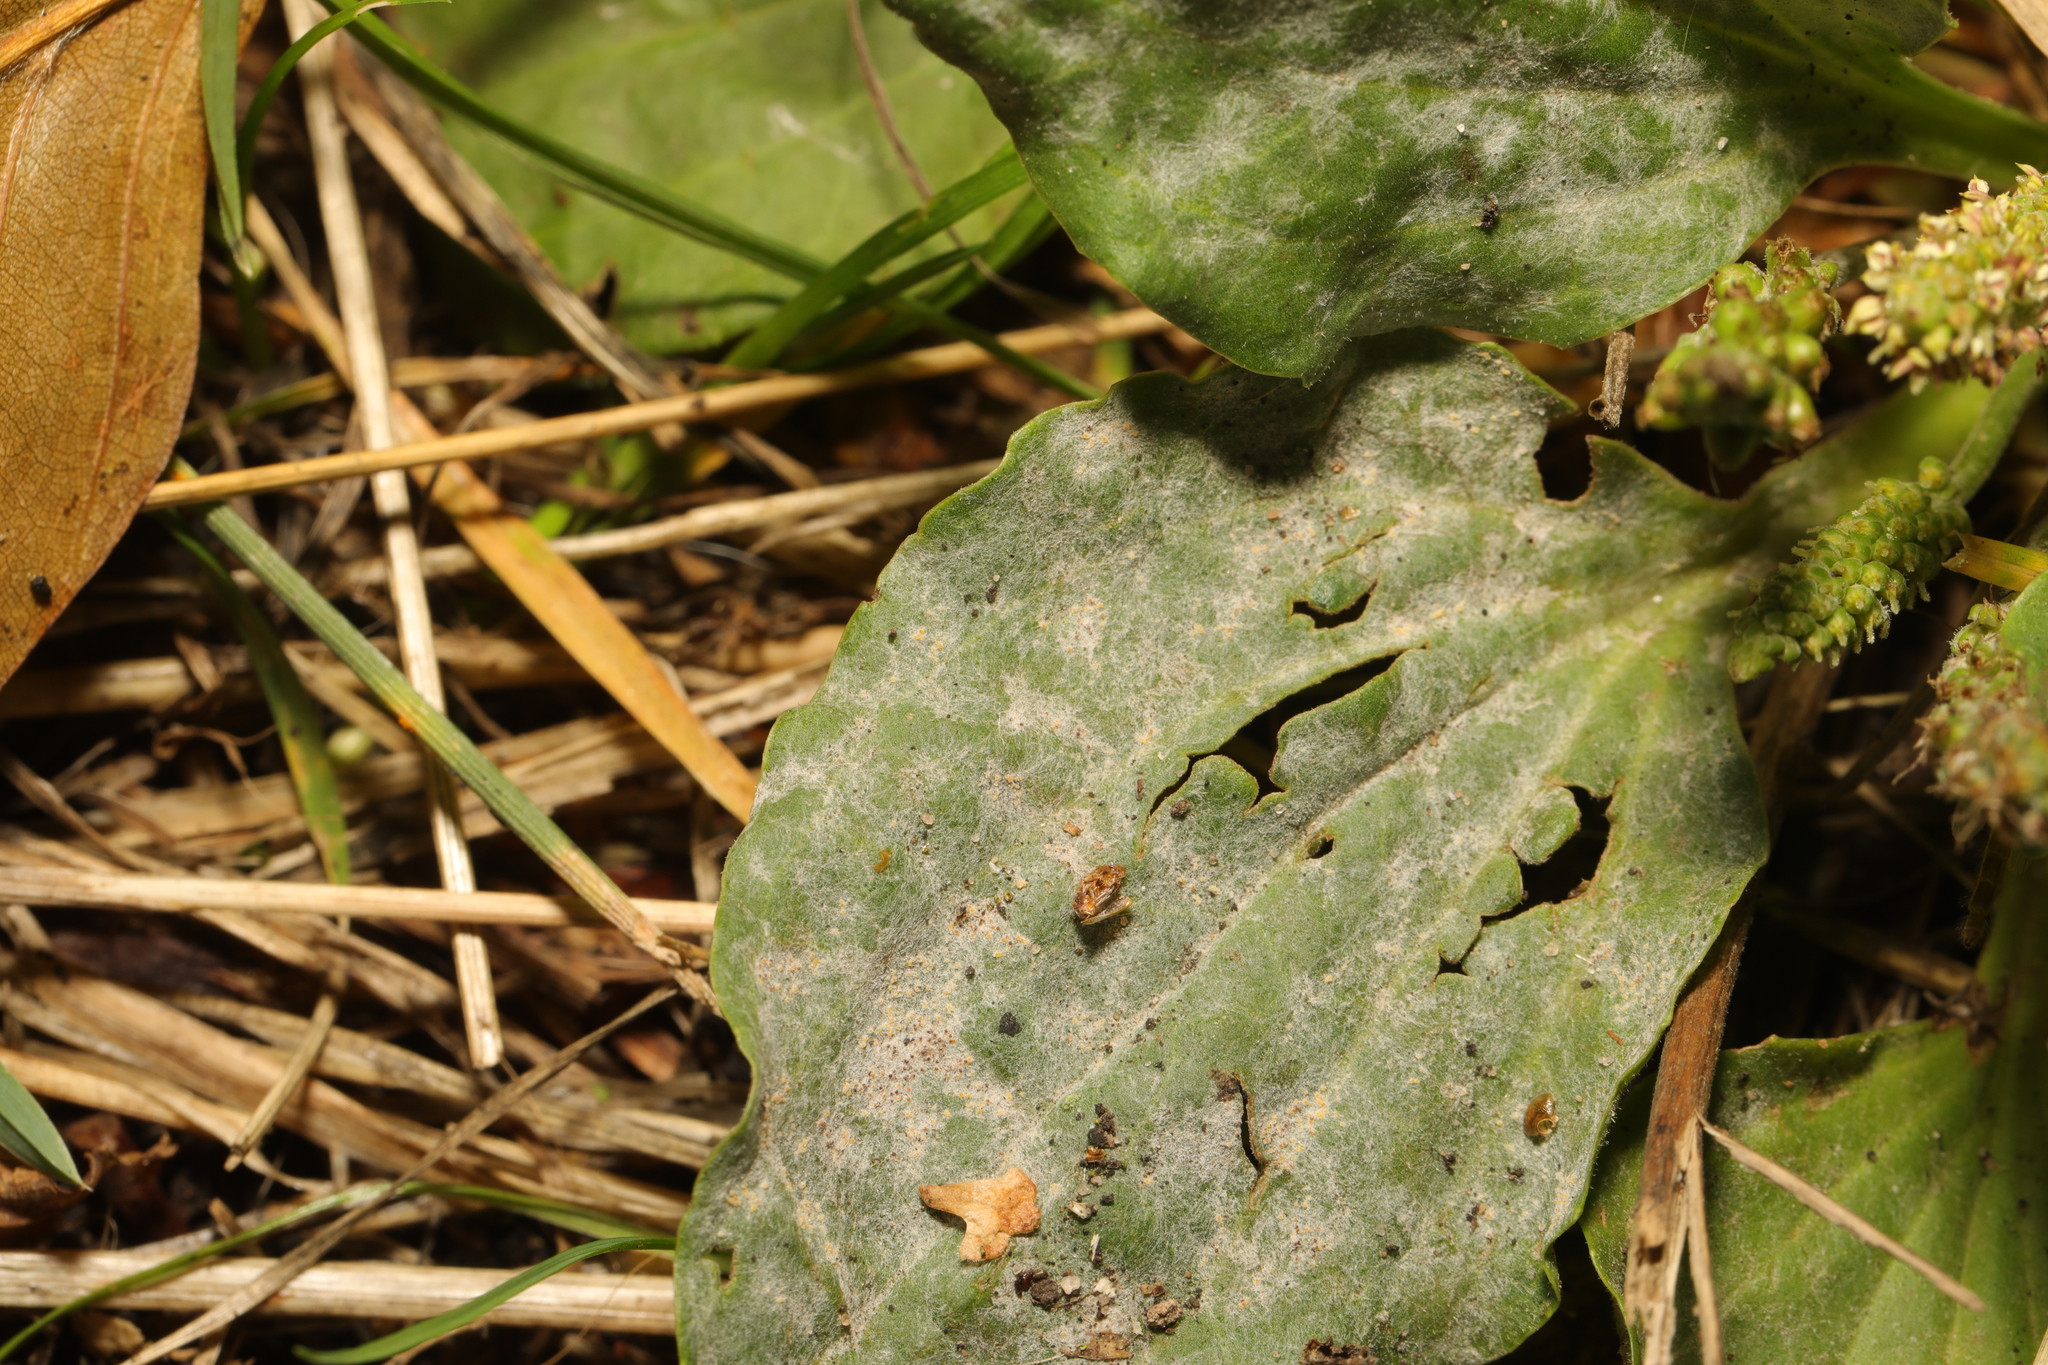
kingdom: Fungi
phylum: Ascomycota
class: Leotiomycetes
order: Helotiales
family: Erysiphaceae
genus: Golovinomyces
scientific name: Golovinomyces sordidus
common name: Plantain mildew
